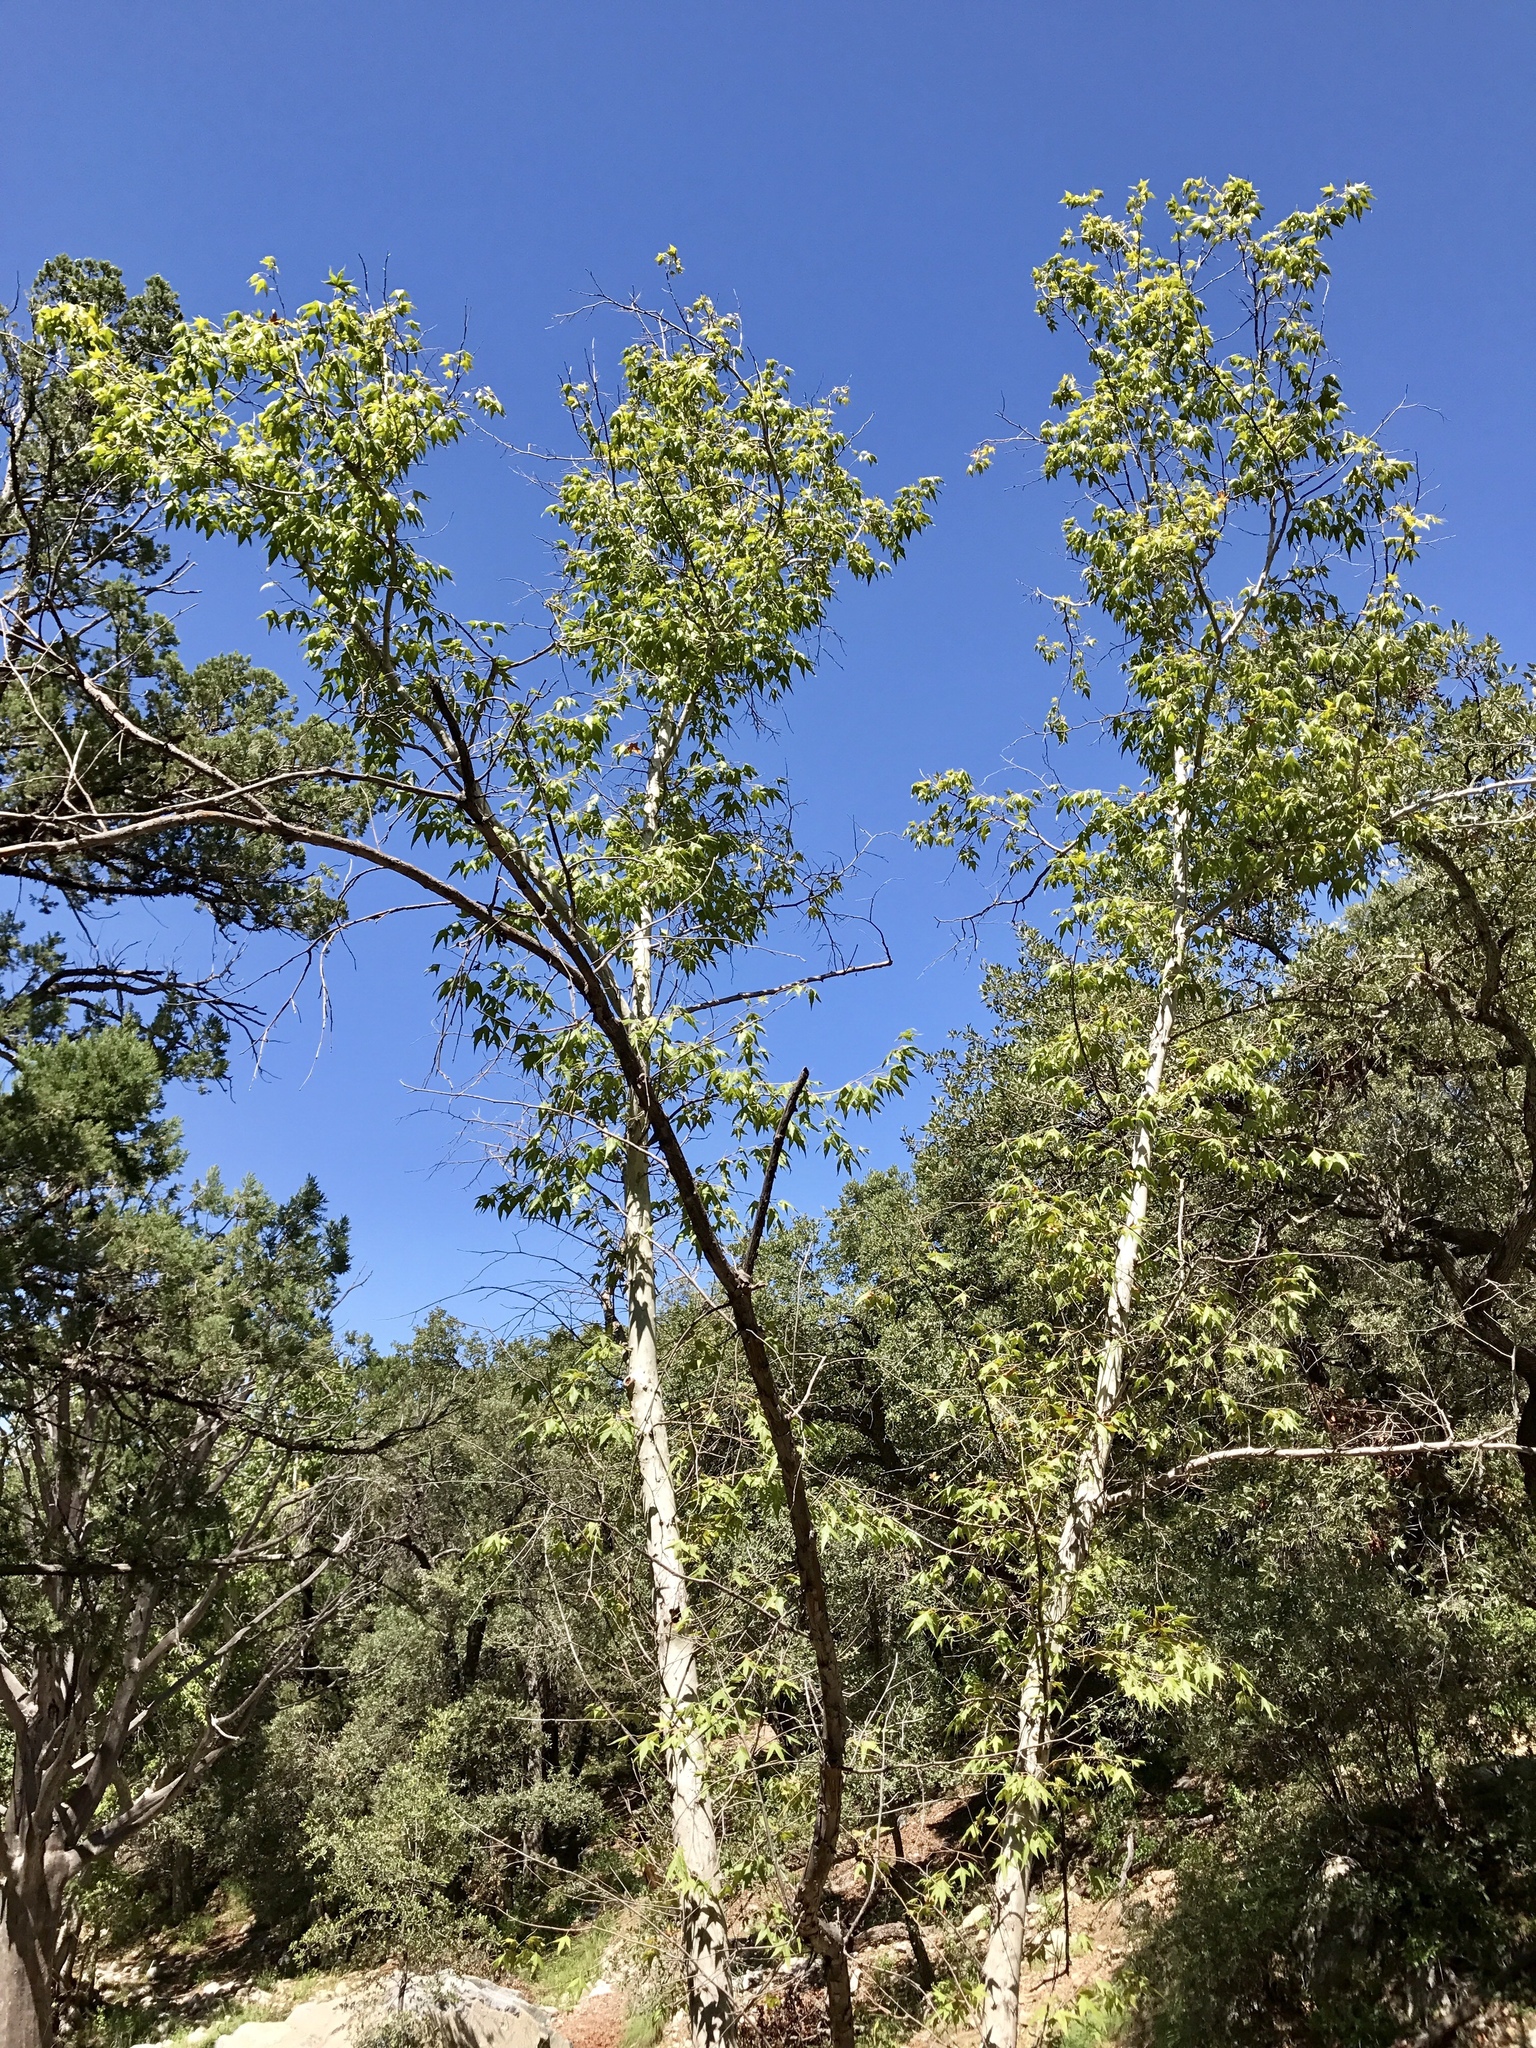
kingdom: Plantae
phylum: Tracheophyta
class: Magnoliopsida
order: Proteales
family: Platanaceae
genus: Platanus
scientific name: Platanus wrightii
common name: Arizona sycamore
